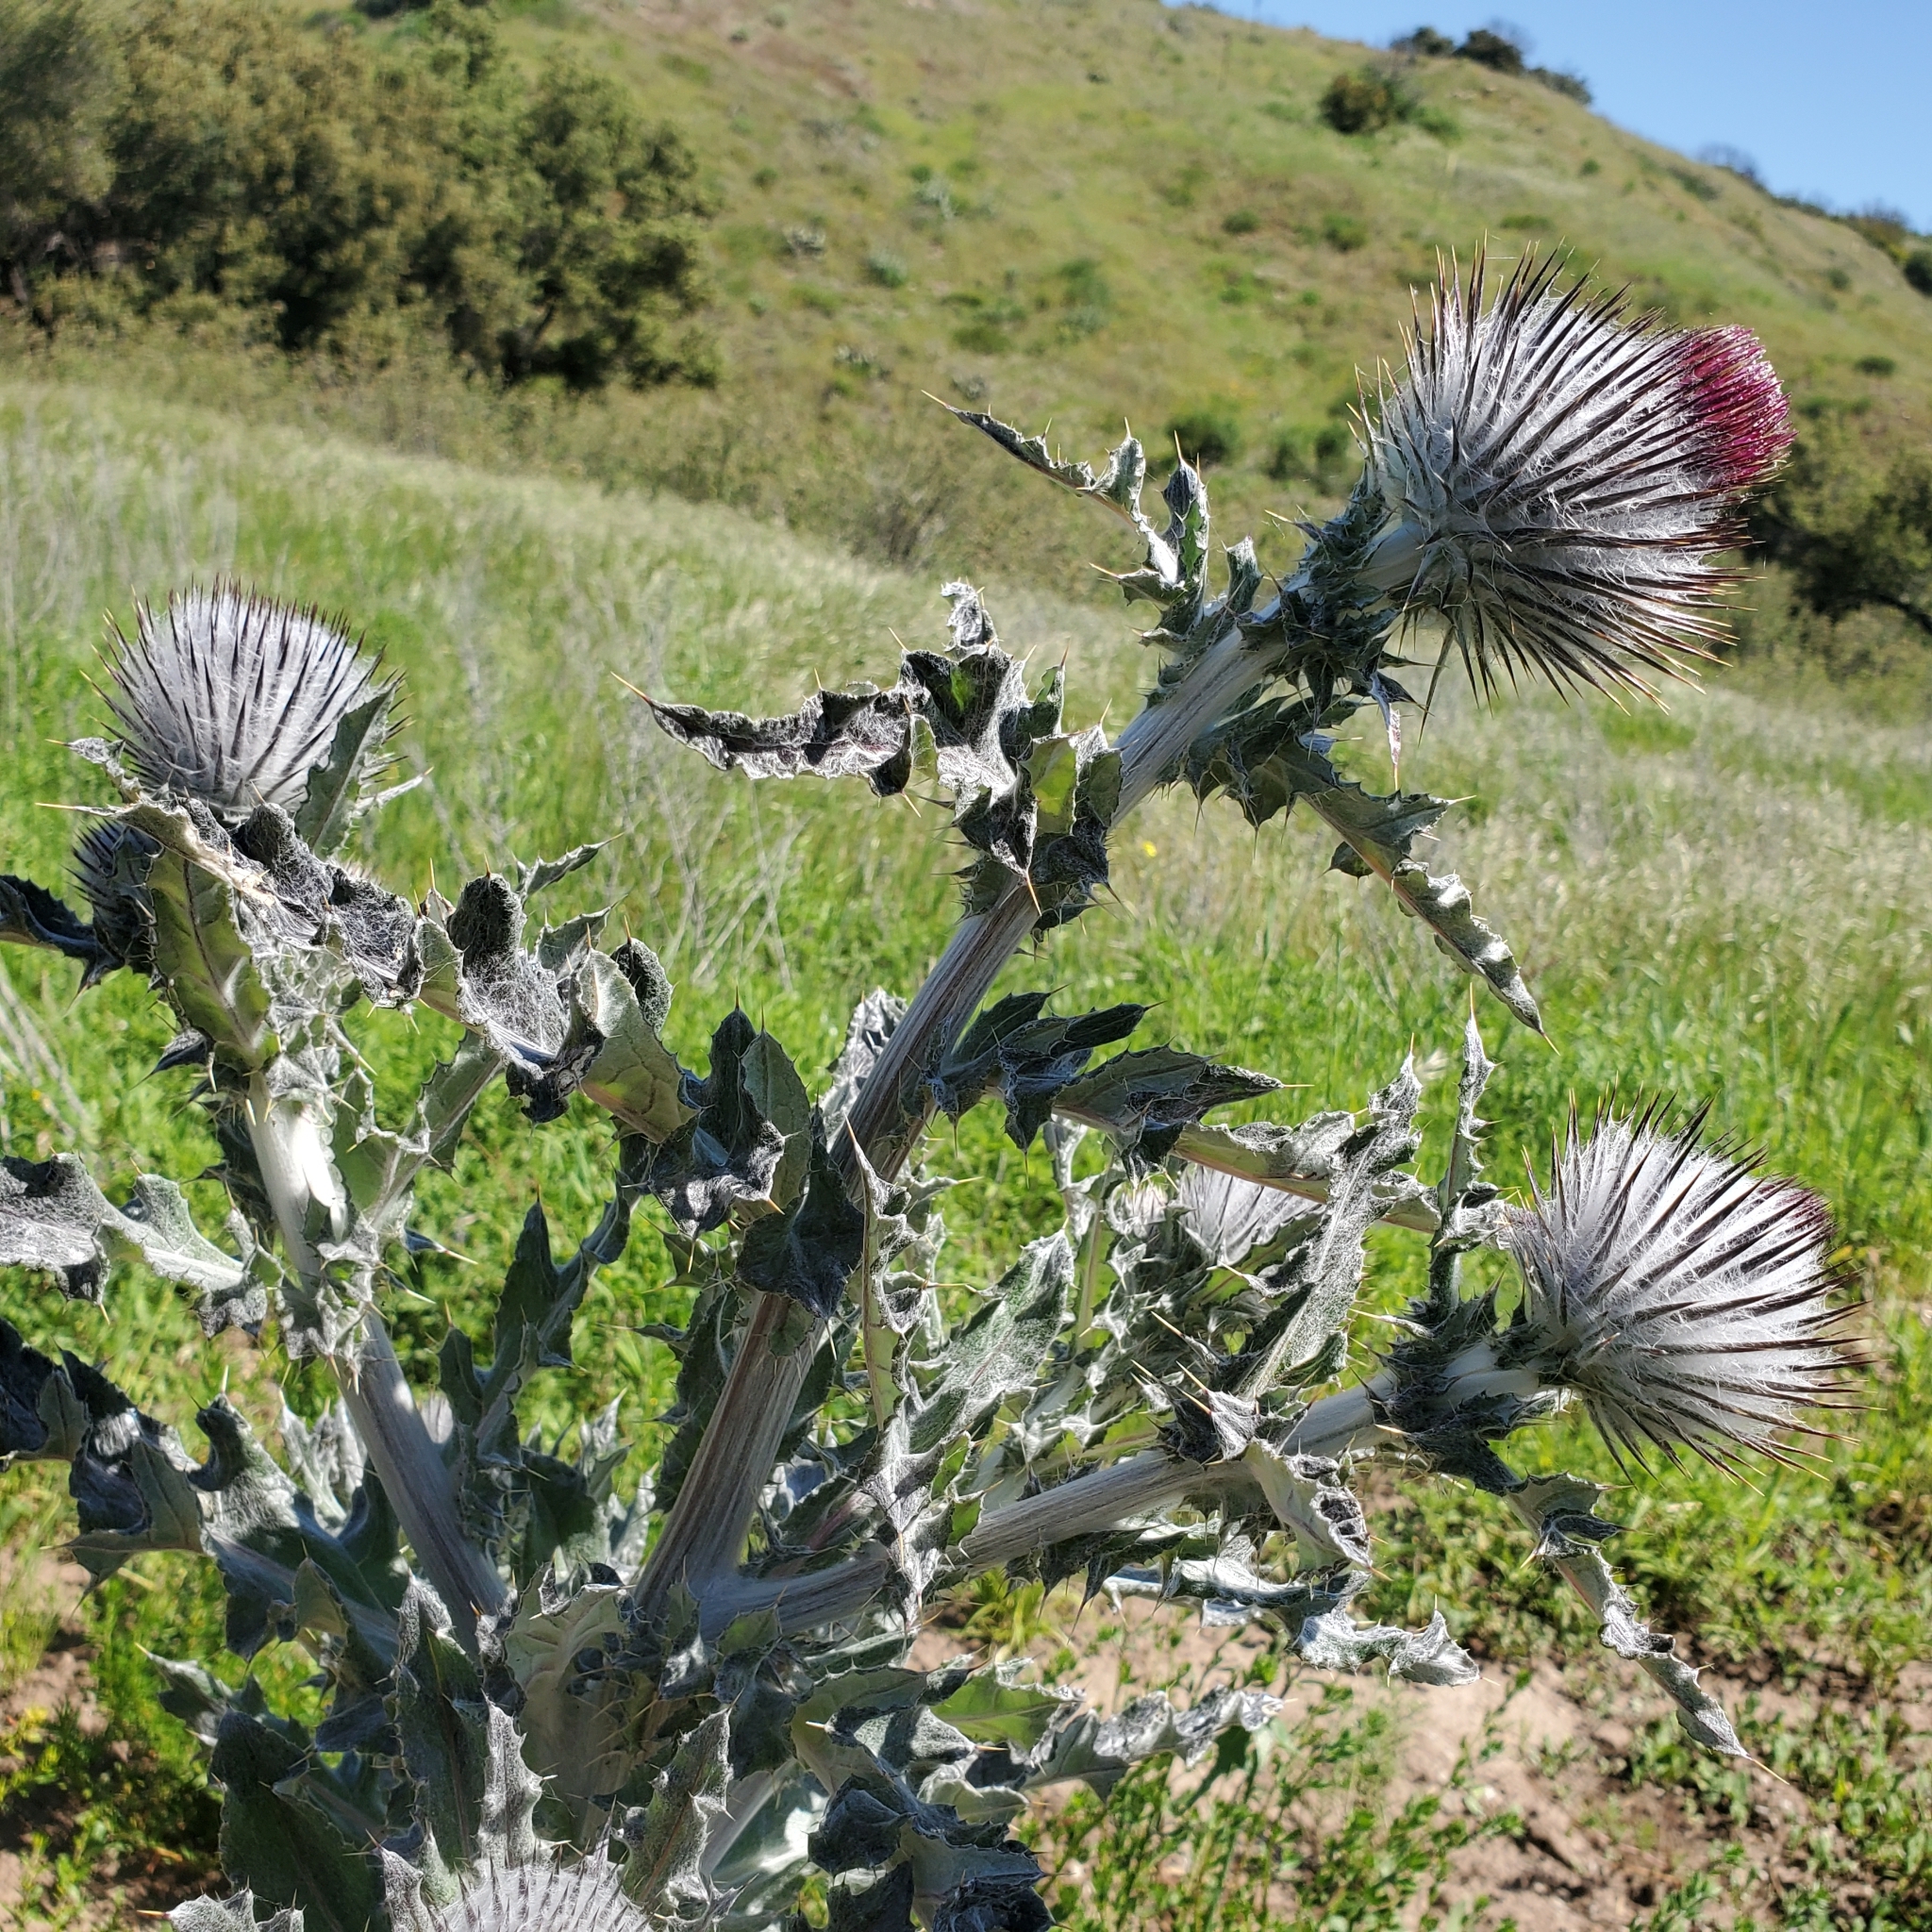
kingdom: Plantae
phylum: Tracheophyta
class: Magnoliopsida
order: Asterales
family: Asteraceae
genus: Cirsium
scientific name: Cirsium occidentale
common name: Western thistle
